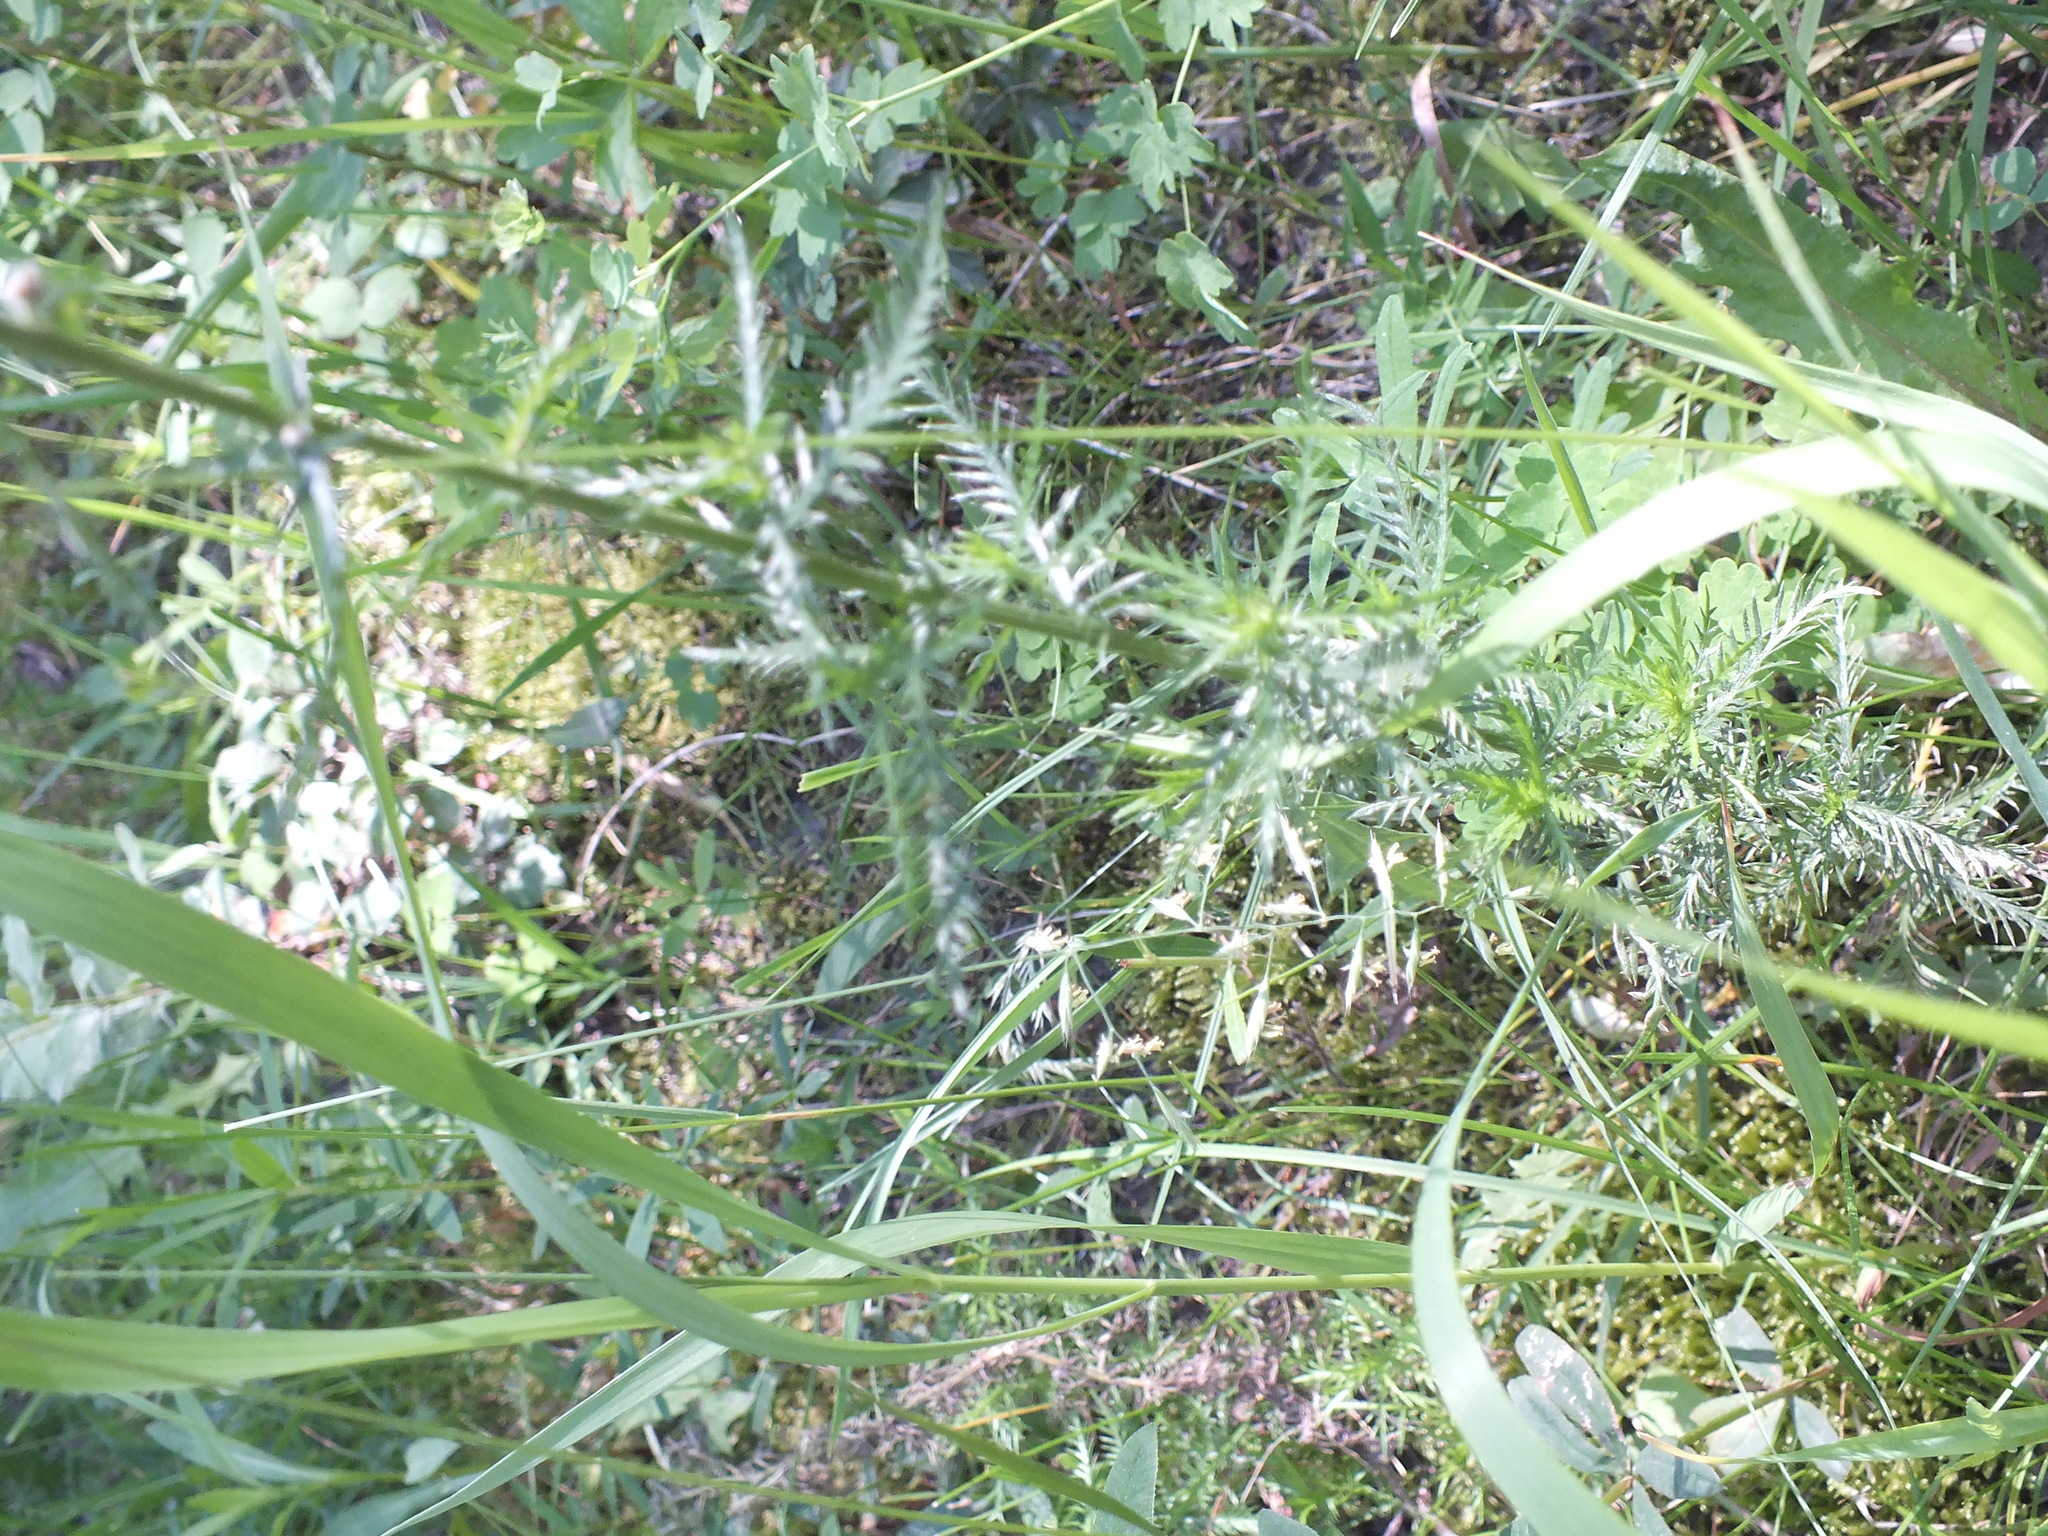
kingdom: Plantae
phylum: Tracheophyta
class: Magnoliopsida
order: Asterales
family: Asteraceae
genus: Achillea
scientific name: Achillea impatiens
